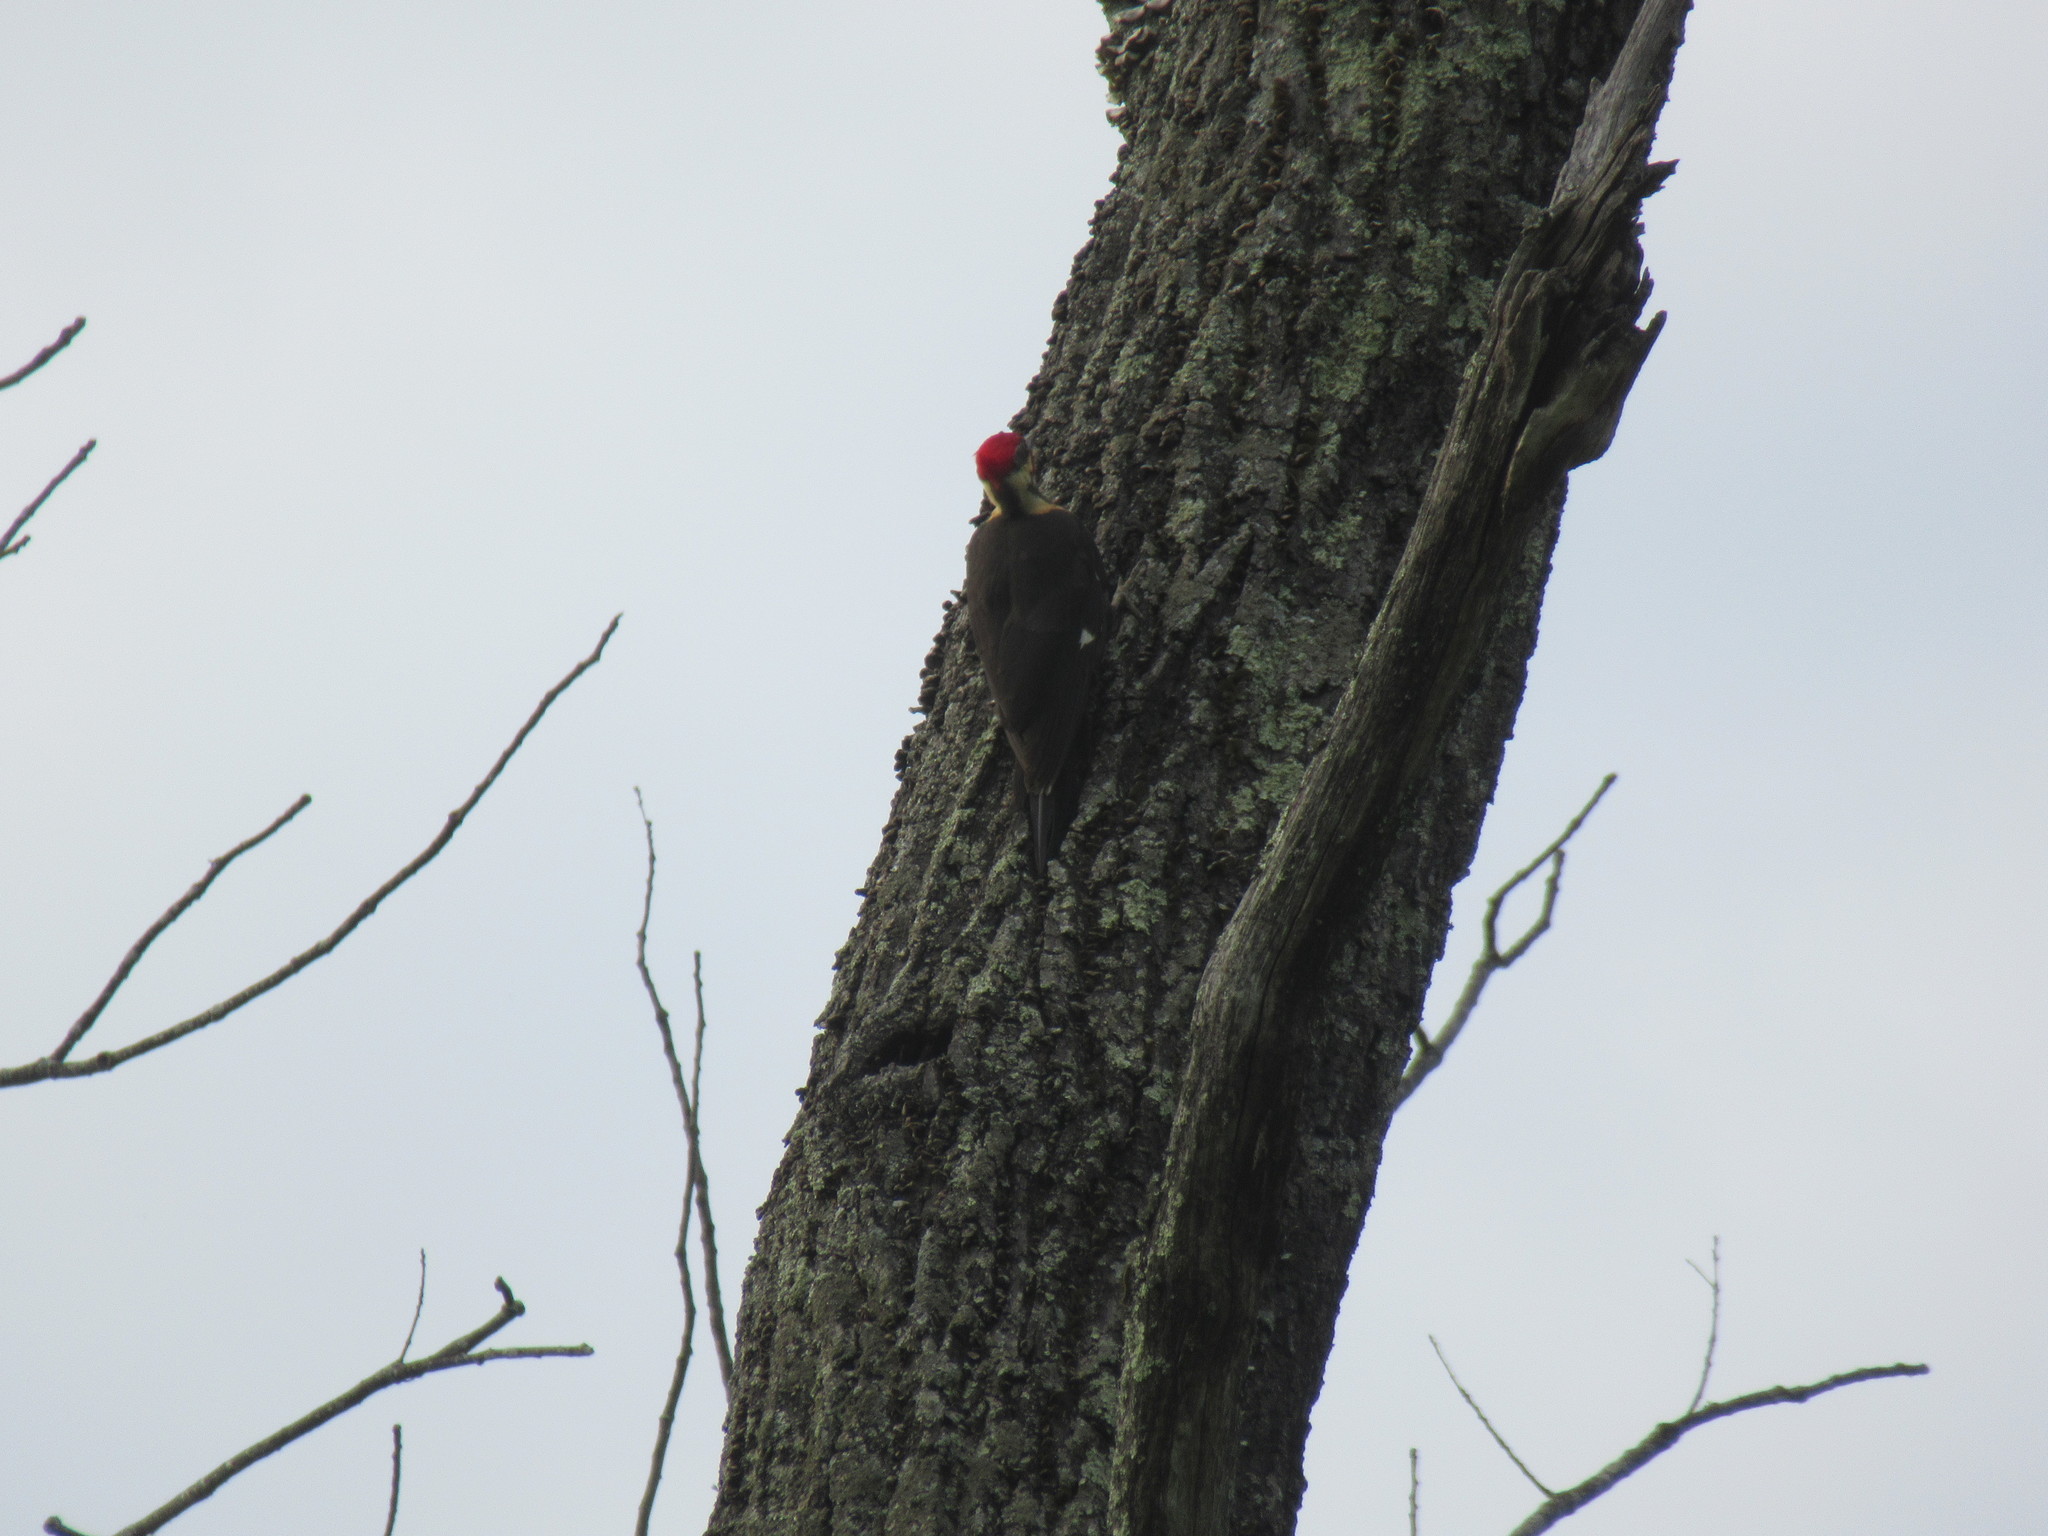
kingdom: Animalia
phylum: Chordata
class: Aves
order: Piciformes
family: Picidae
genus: Dryocopus
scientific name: Dryocopus pileatus
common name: Pileated woodpecker
